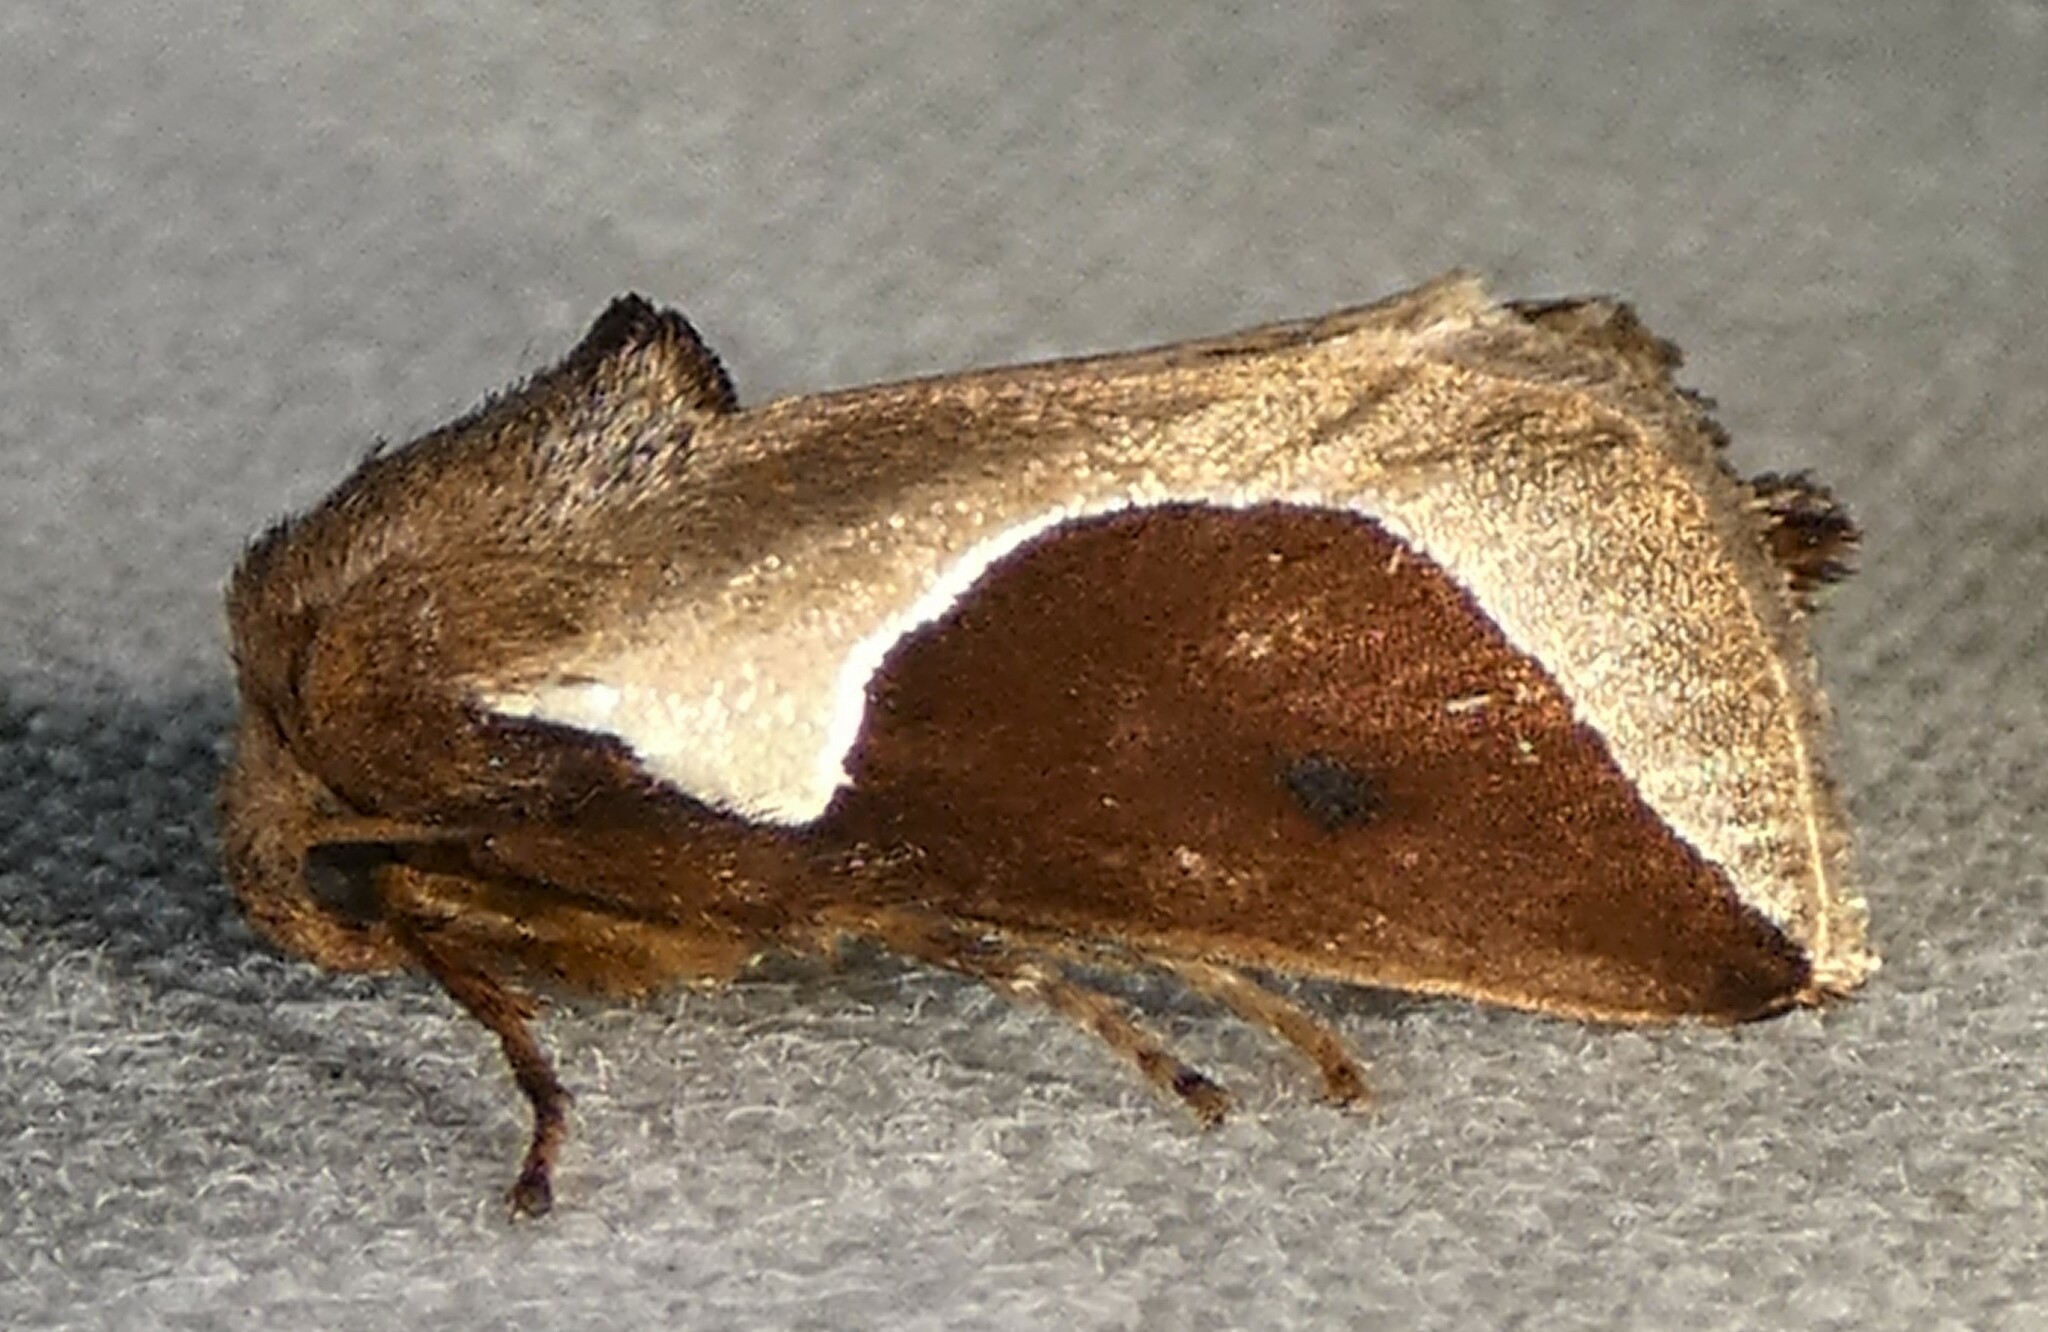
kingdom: Animalia
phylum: Arthropoda
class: Insecta
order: Lepidoptera
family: Limacodidae
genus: Prolimacodes
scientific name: Prolimacodes badia
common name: Skiff moth
